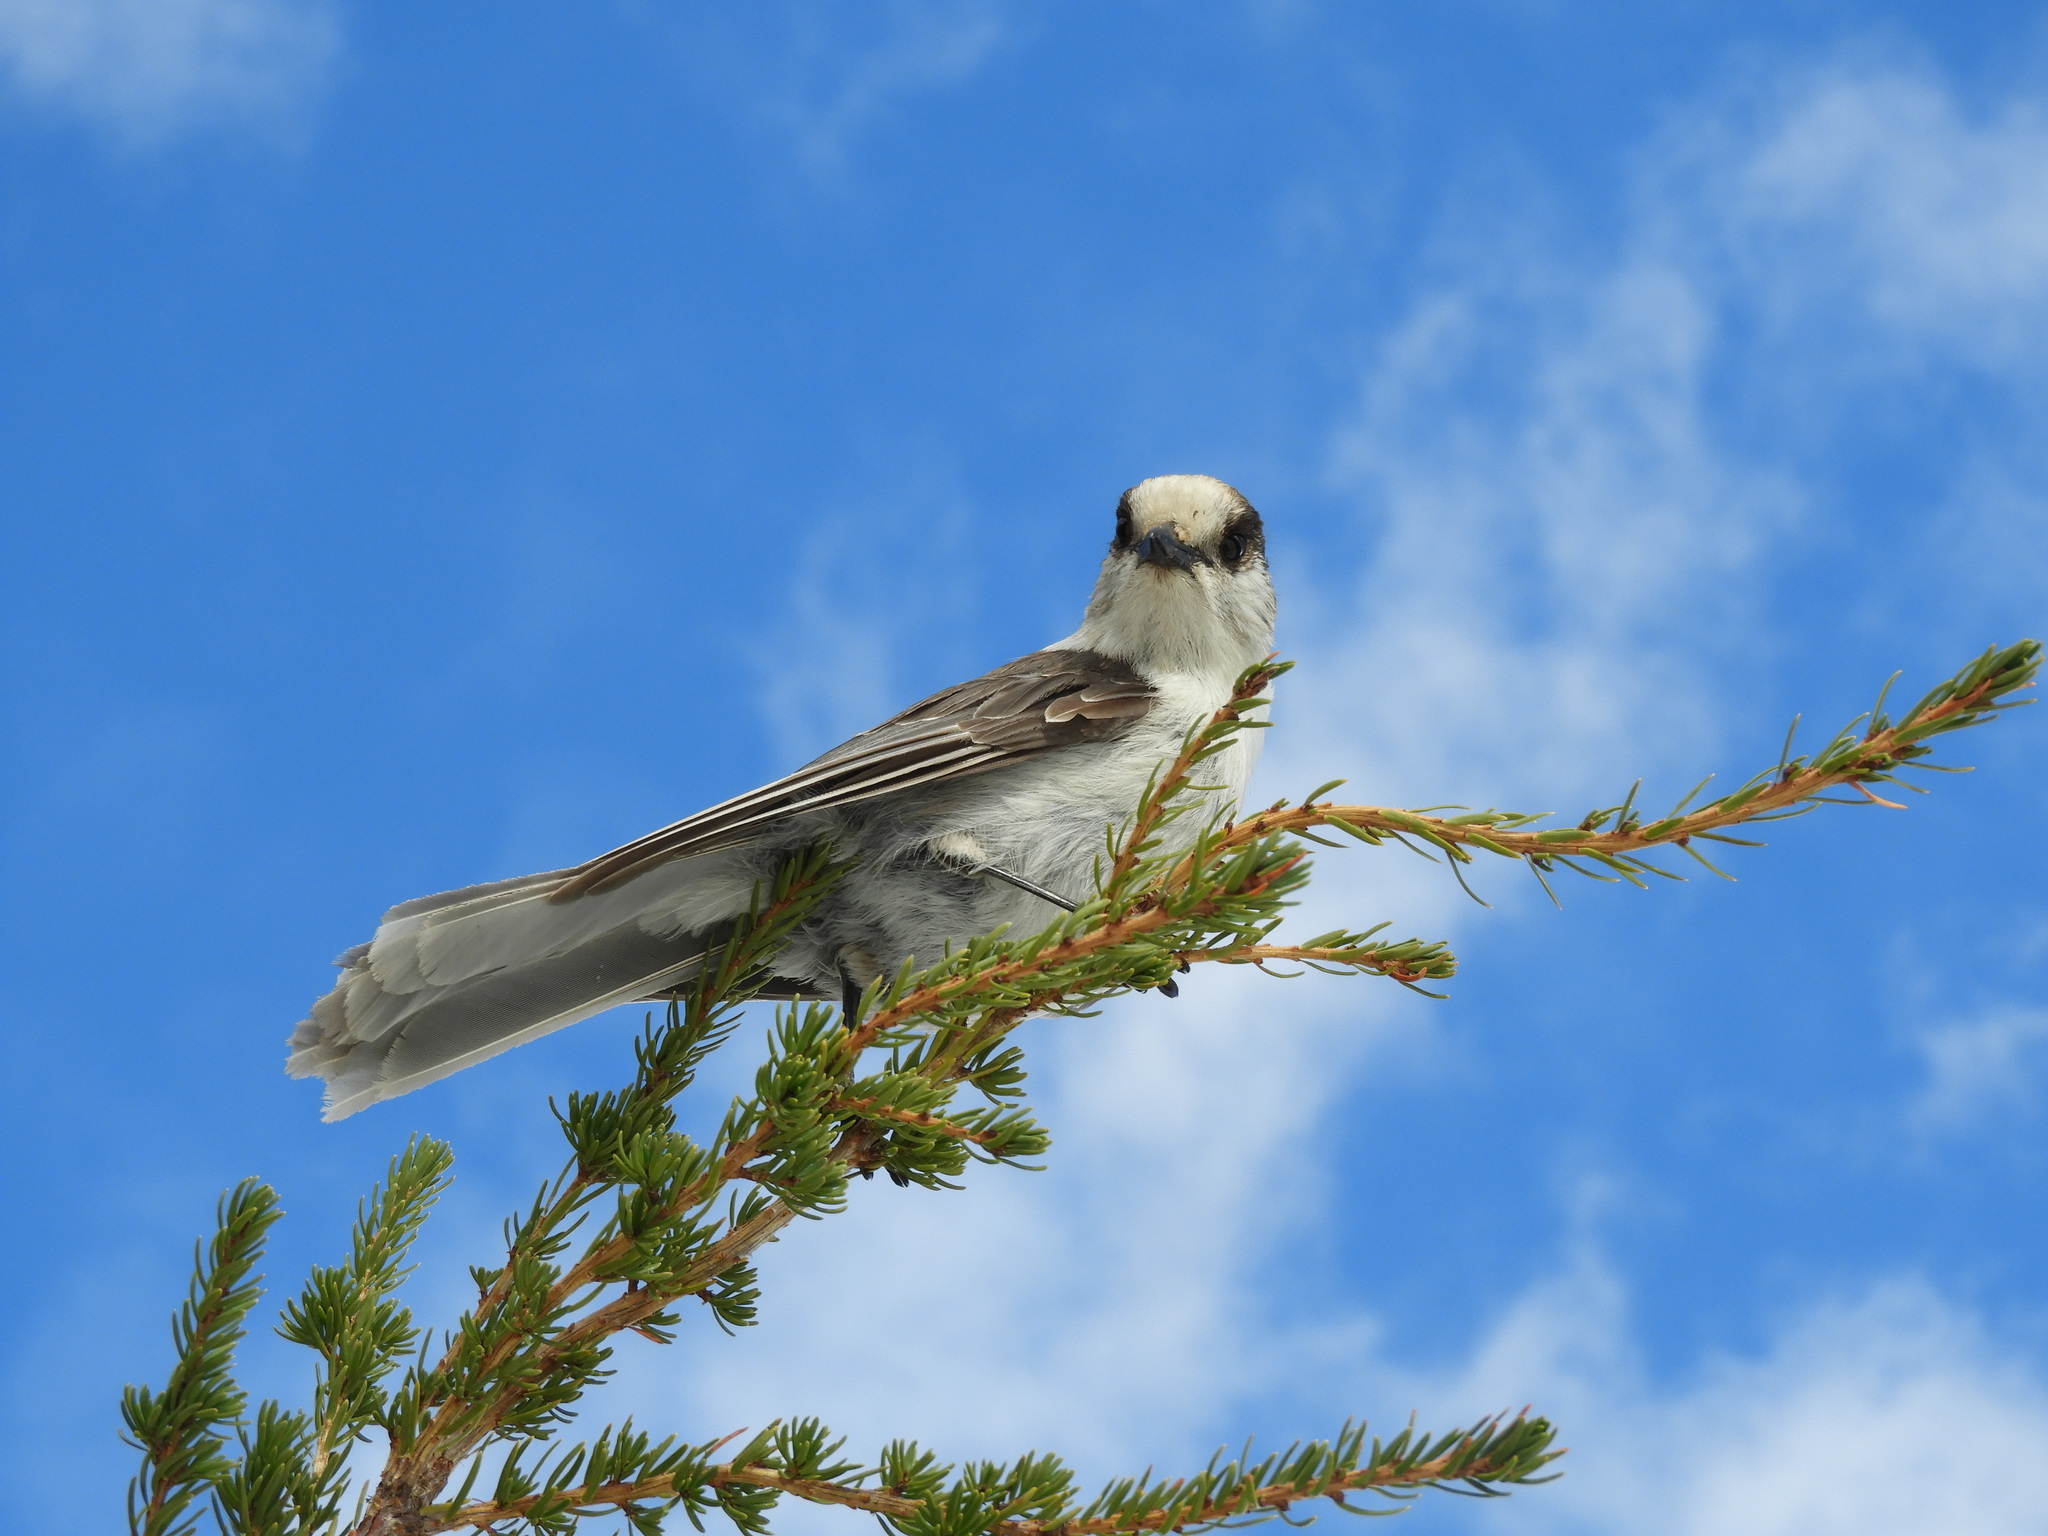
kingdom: Animalia
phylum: Chordata
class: Aves
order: Passeriformes
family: Corvidae
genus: Perisoreus
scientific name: Perisoreus canadensis
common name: Gray jay
